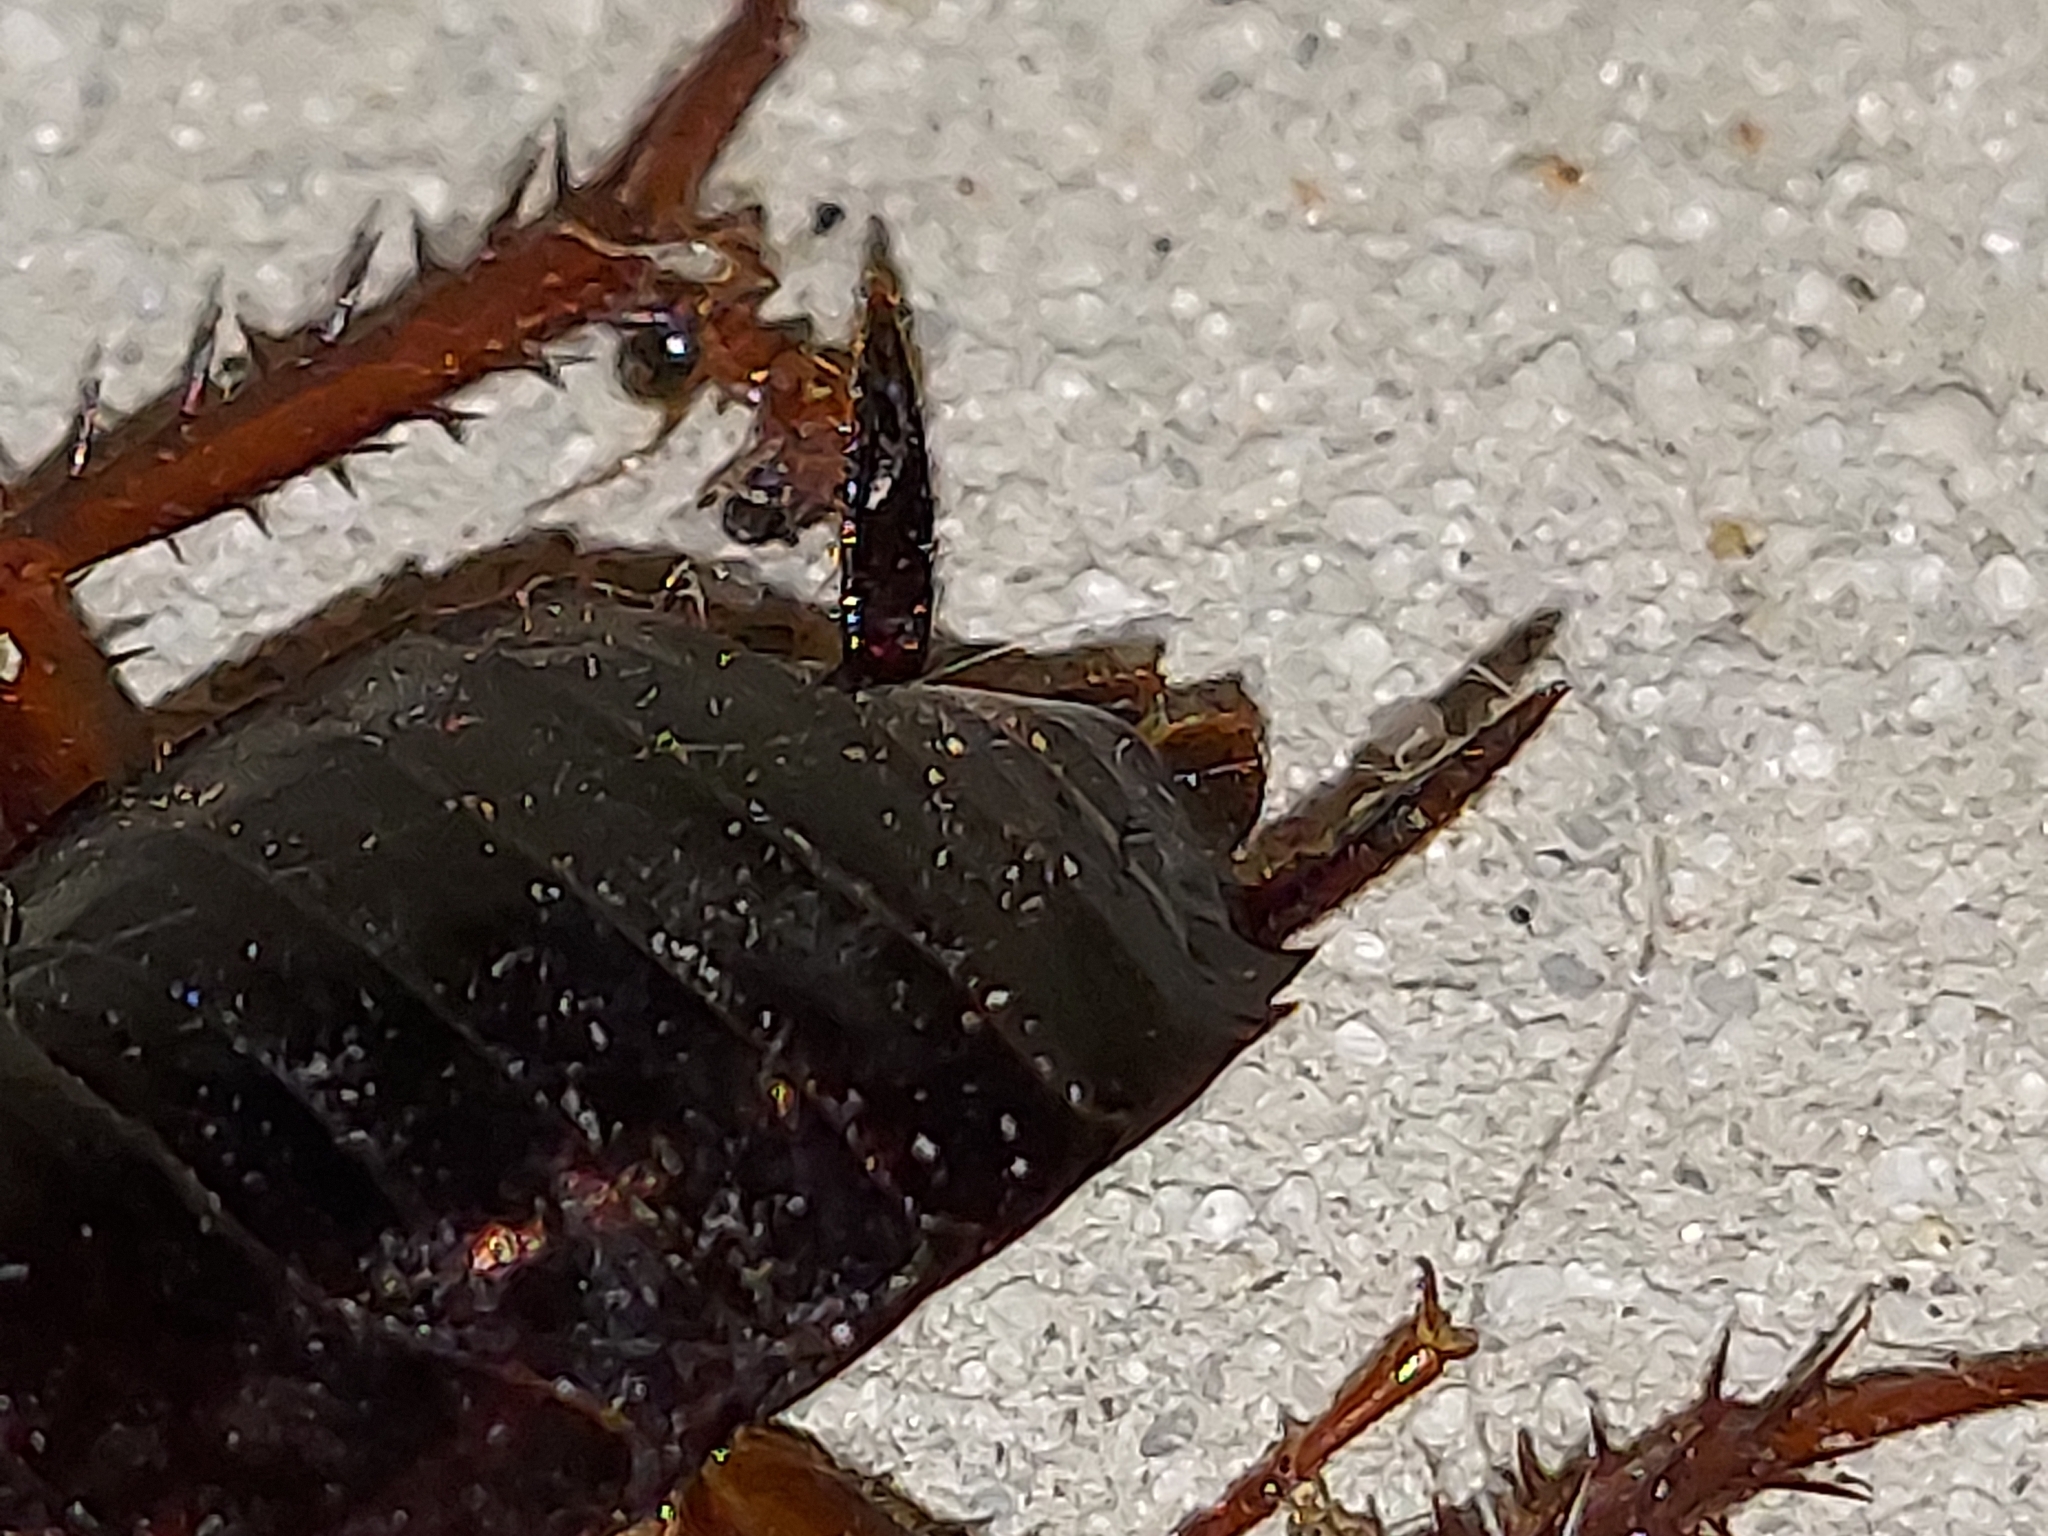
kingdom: Animalia
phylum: Arthropoda
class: Insecta
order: Blattodea
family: Blattidae
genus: Blatta
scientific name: Blatta orientalis
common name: Oriental cockroach
